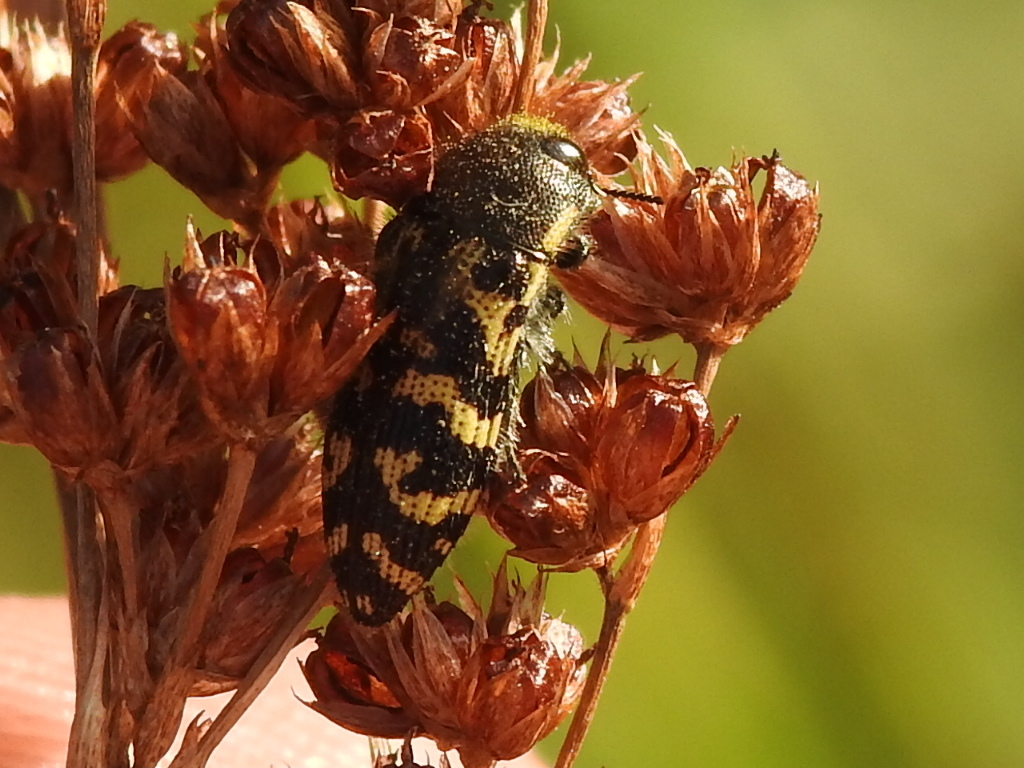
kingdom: Animalia
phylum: Arthropoda
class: Insecta
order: Coleoptera
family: Buprestidae
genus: Acmaeodera
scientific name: Acmaeodera mixta
